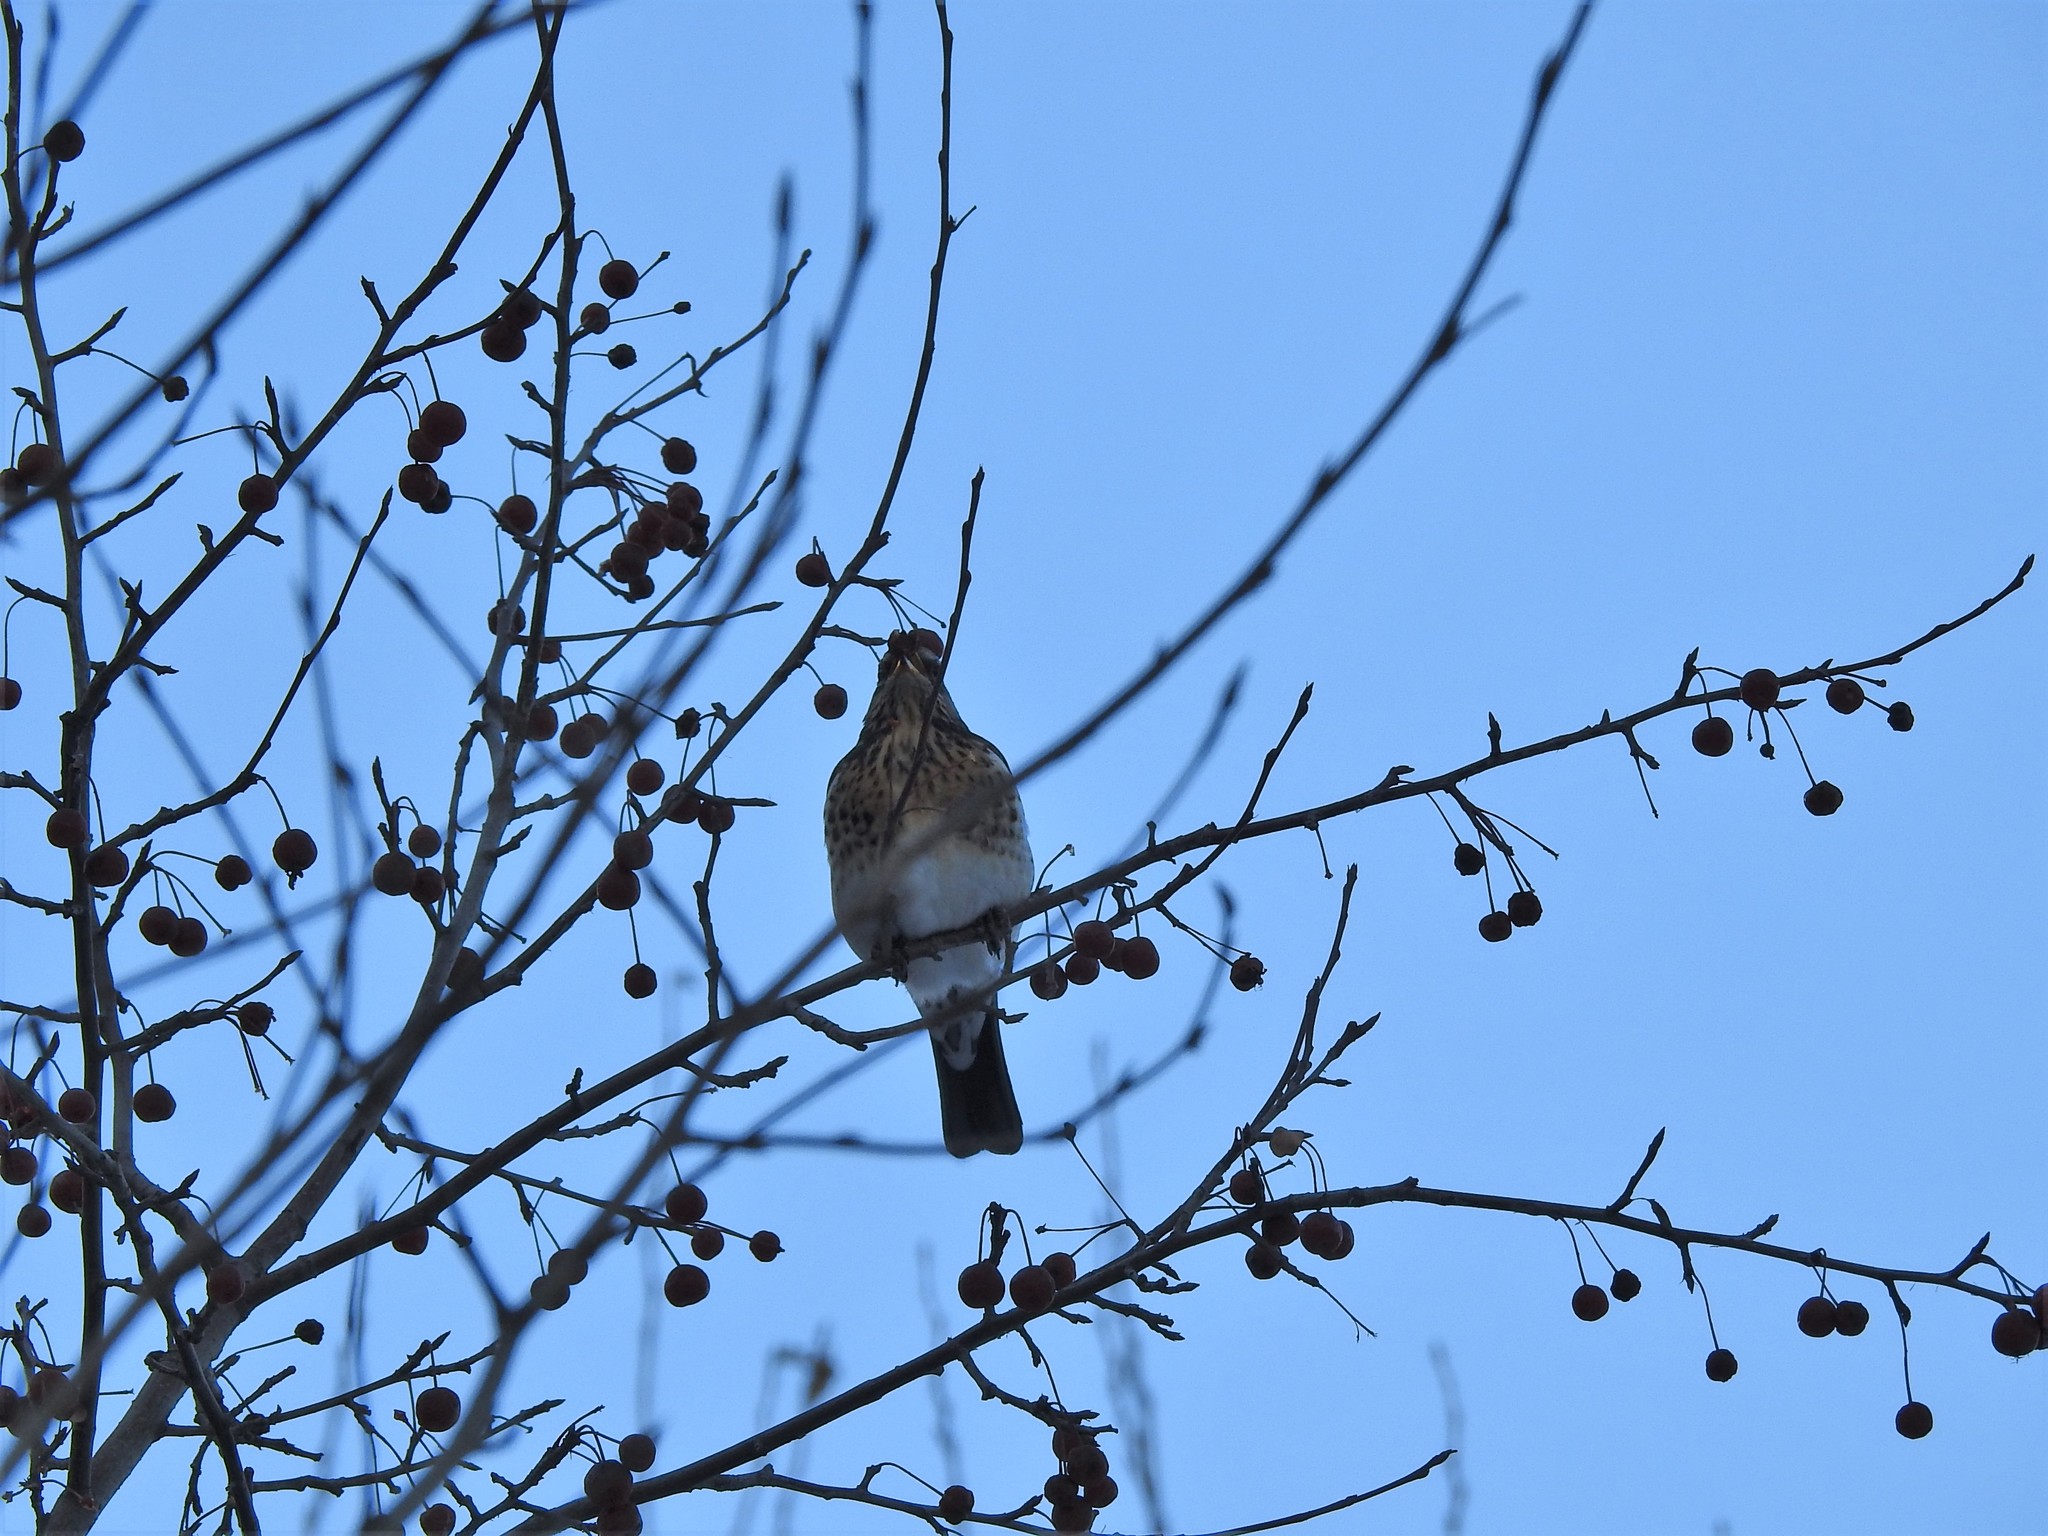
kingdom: Animalia
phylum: Chordata
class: Aves
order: Passeriformes
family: Turdidae
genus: Turdus
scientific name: Turdus pilaris
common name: Fieldfare
